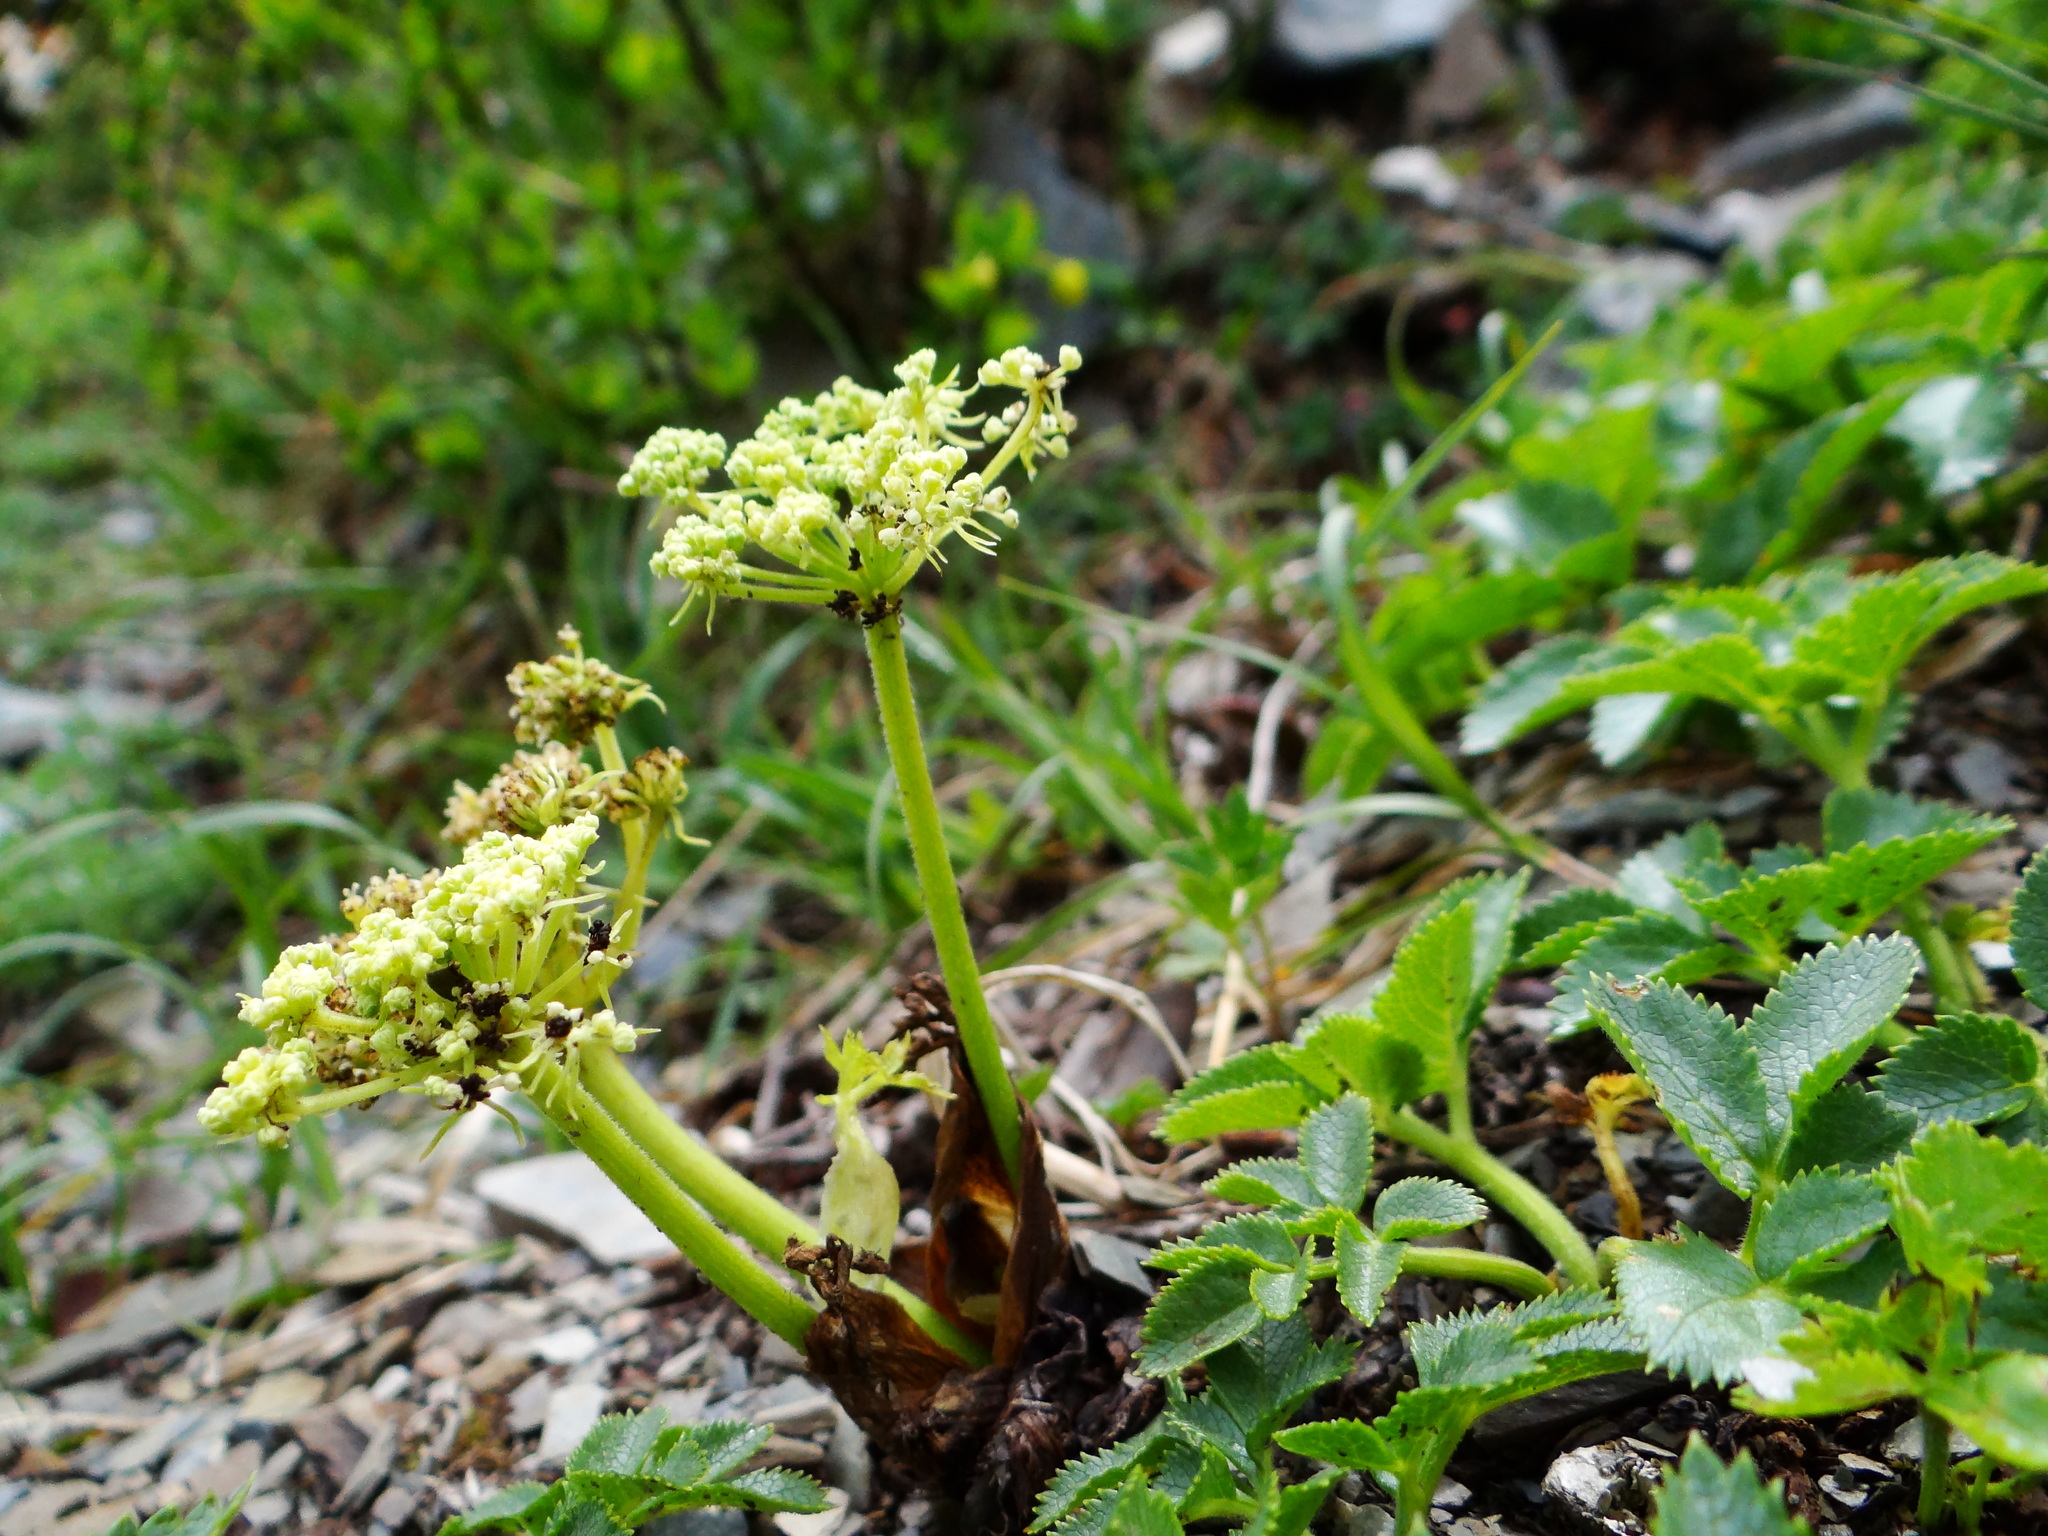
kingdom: Plantae
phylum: Tracheophyta
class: Magnoliopsida
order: Apiales
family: Apiaceae
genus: Angelica
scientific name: Angelica morrisonicola
